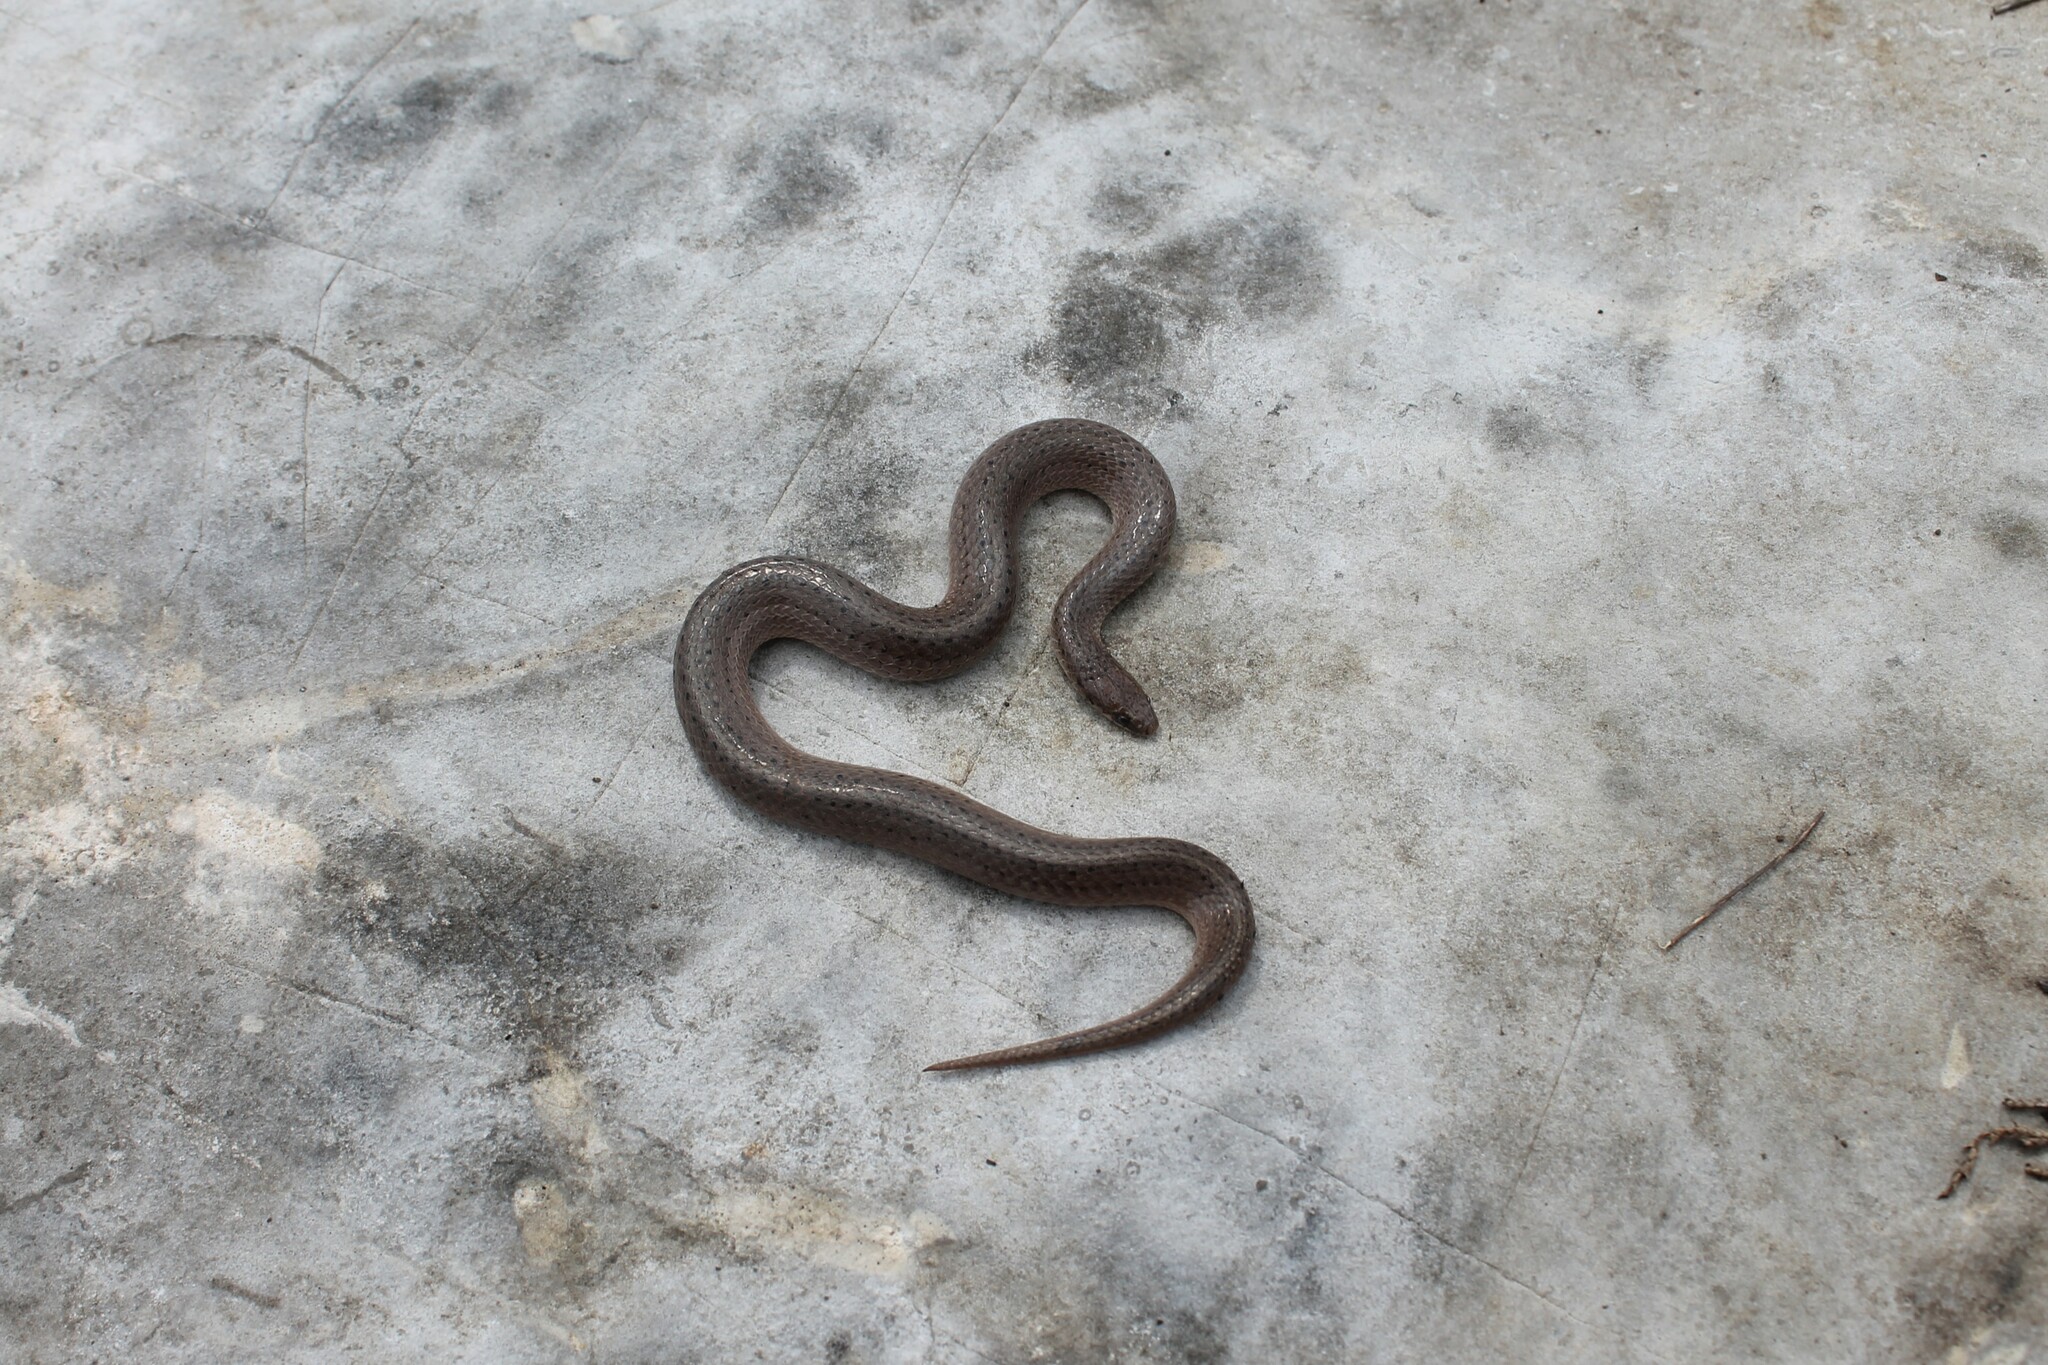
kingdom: Animalia
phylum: Chordata
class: Squamata
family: Colubridae
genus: Virginia
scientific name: Virginia valeriae
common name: Smooth earth snake
